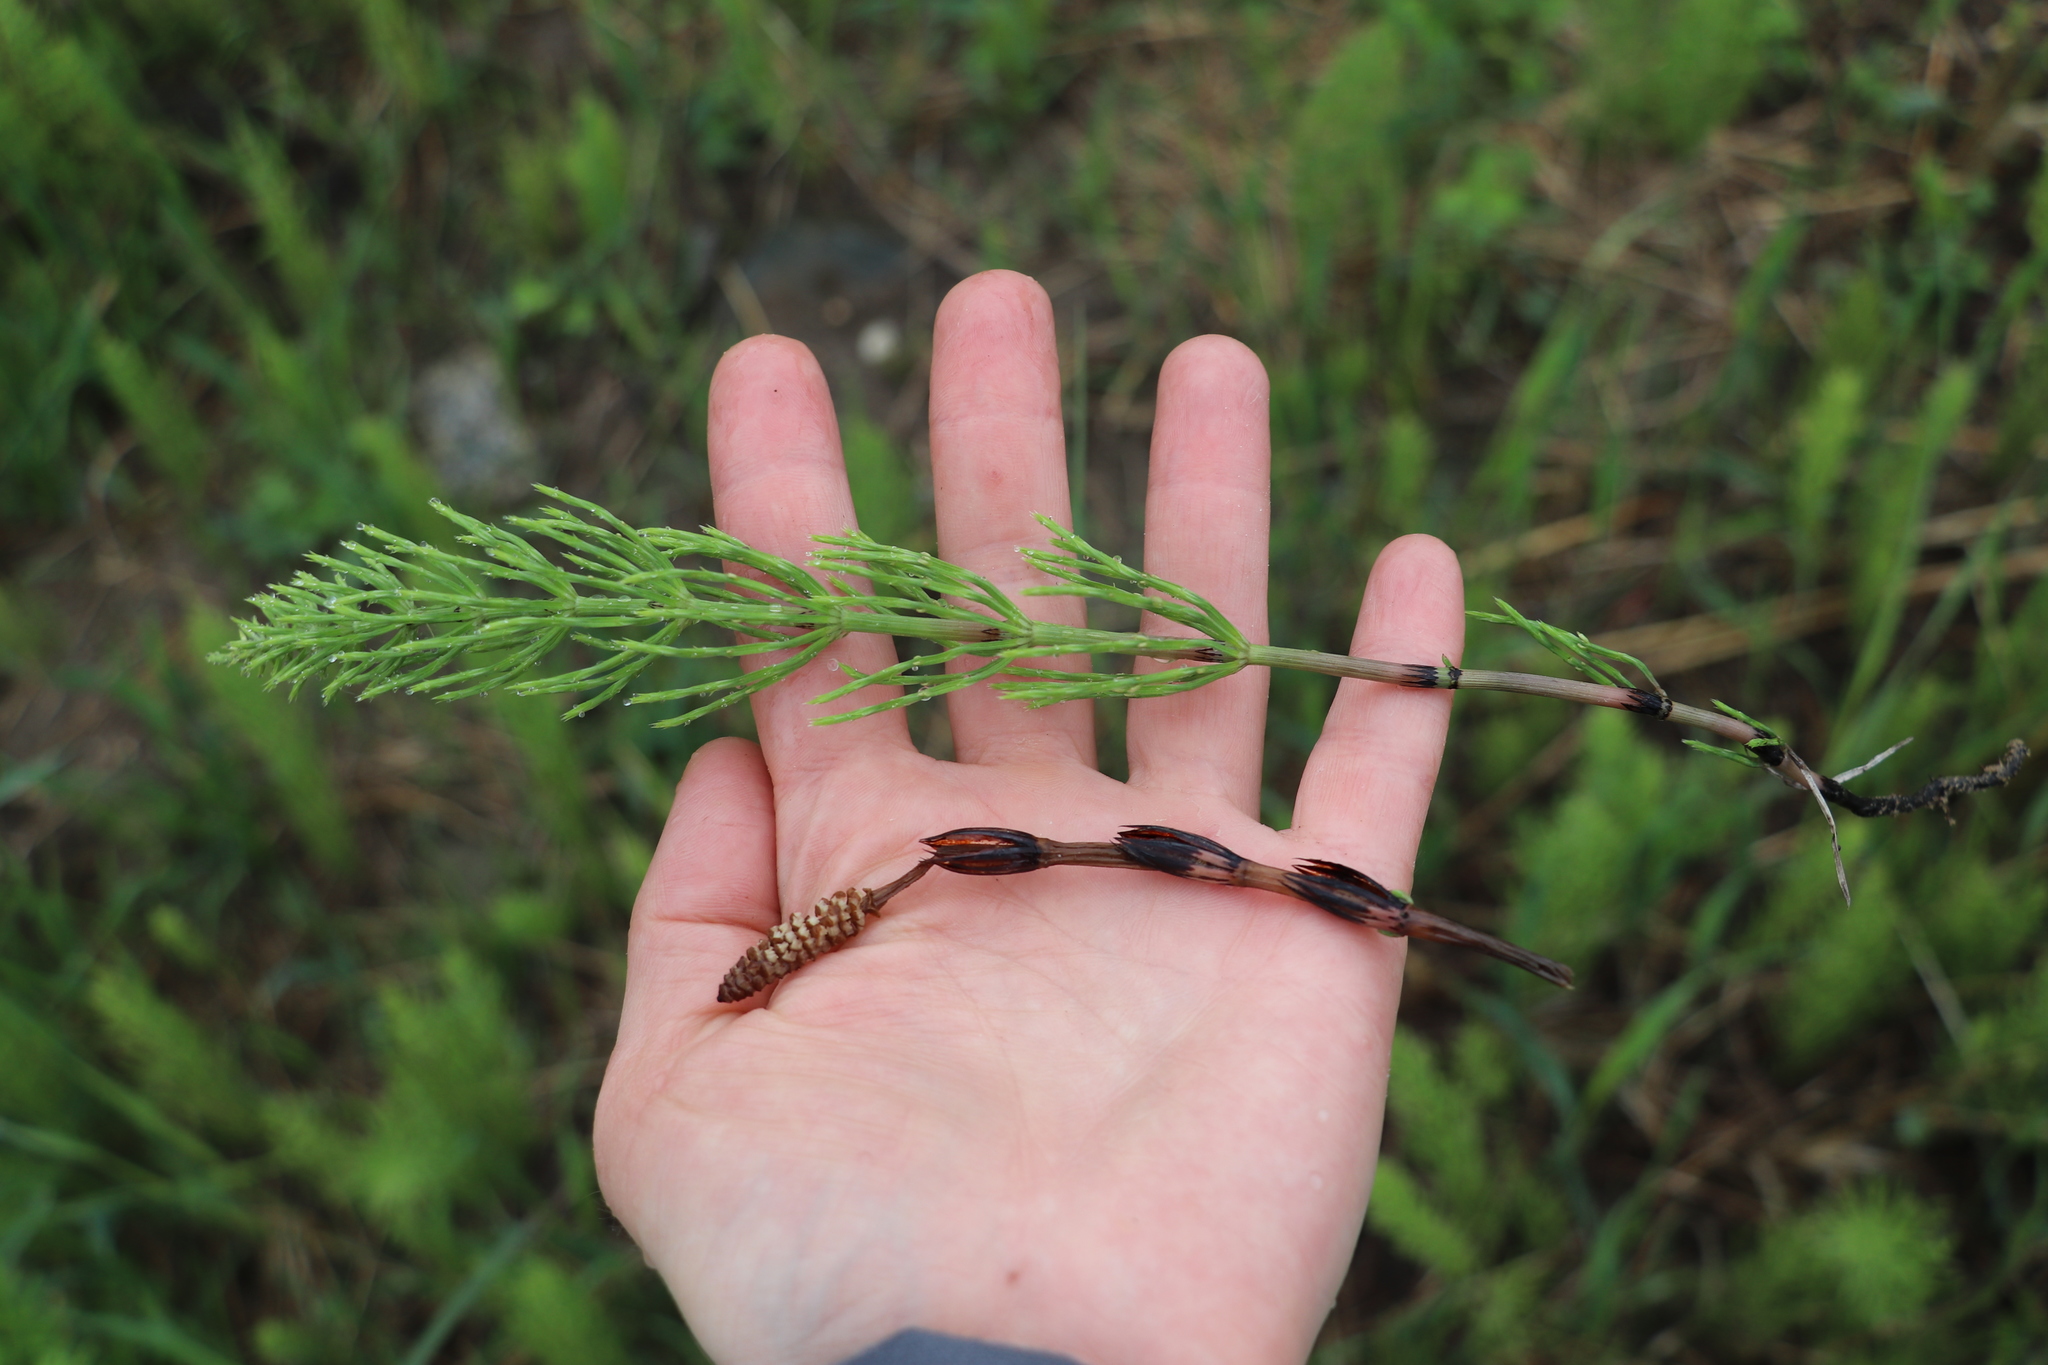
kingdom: Plantae
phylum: Tracheophyta
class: Polypodiopsida
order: Equisetales
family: Equisetaceae
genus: Equisetum
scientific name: Equisetum arvense
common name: Field horsetail
